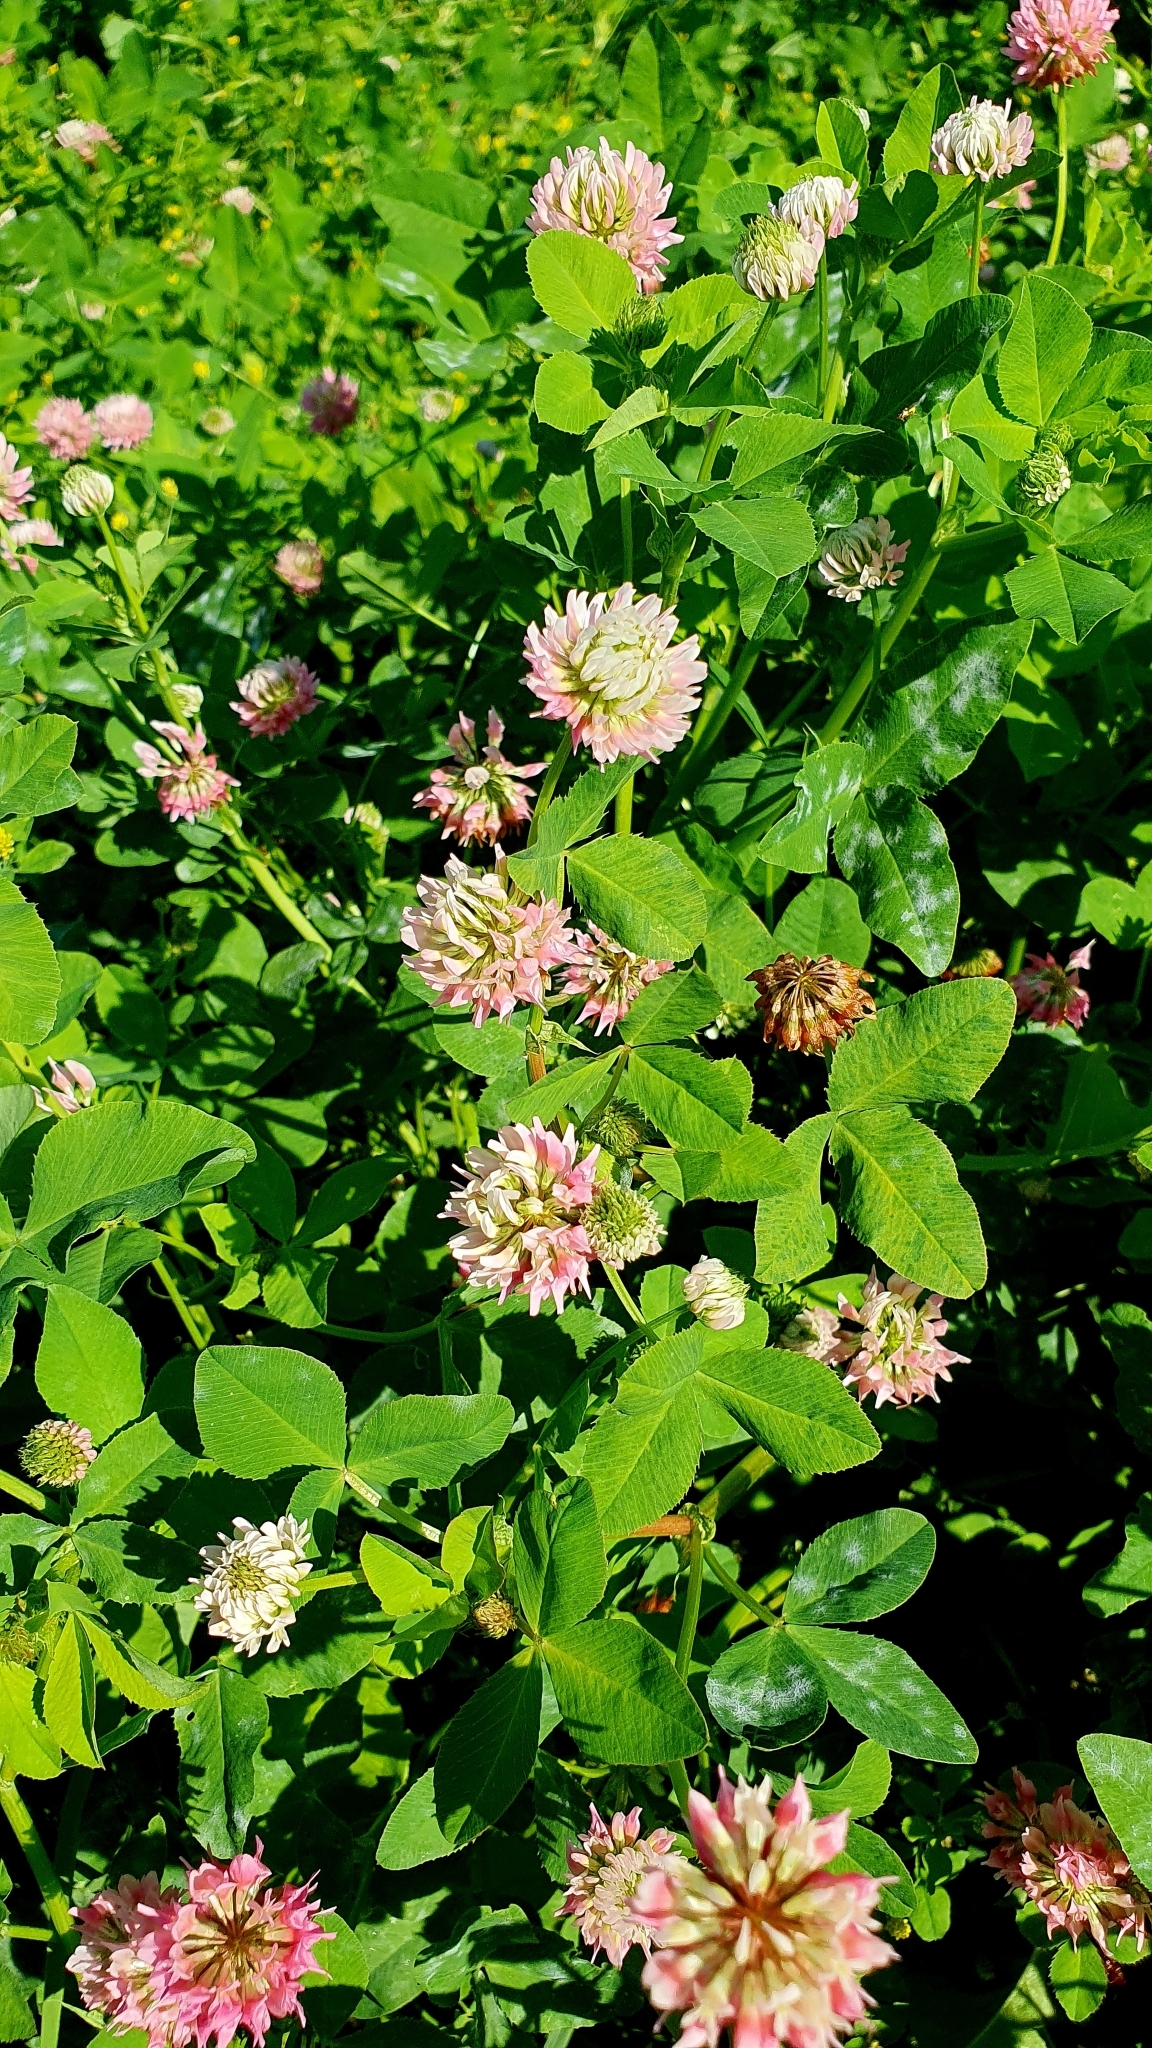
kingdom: Plantae
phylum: Tracheophyta
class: Magnoliopsida
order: Fabales
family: Fabaceae
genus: Trifolium
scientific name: Trifolium hybridum
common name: Alsike clover
